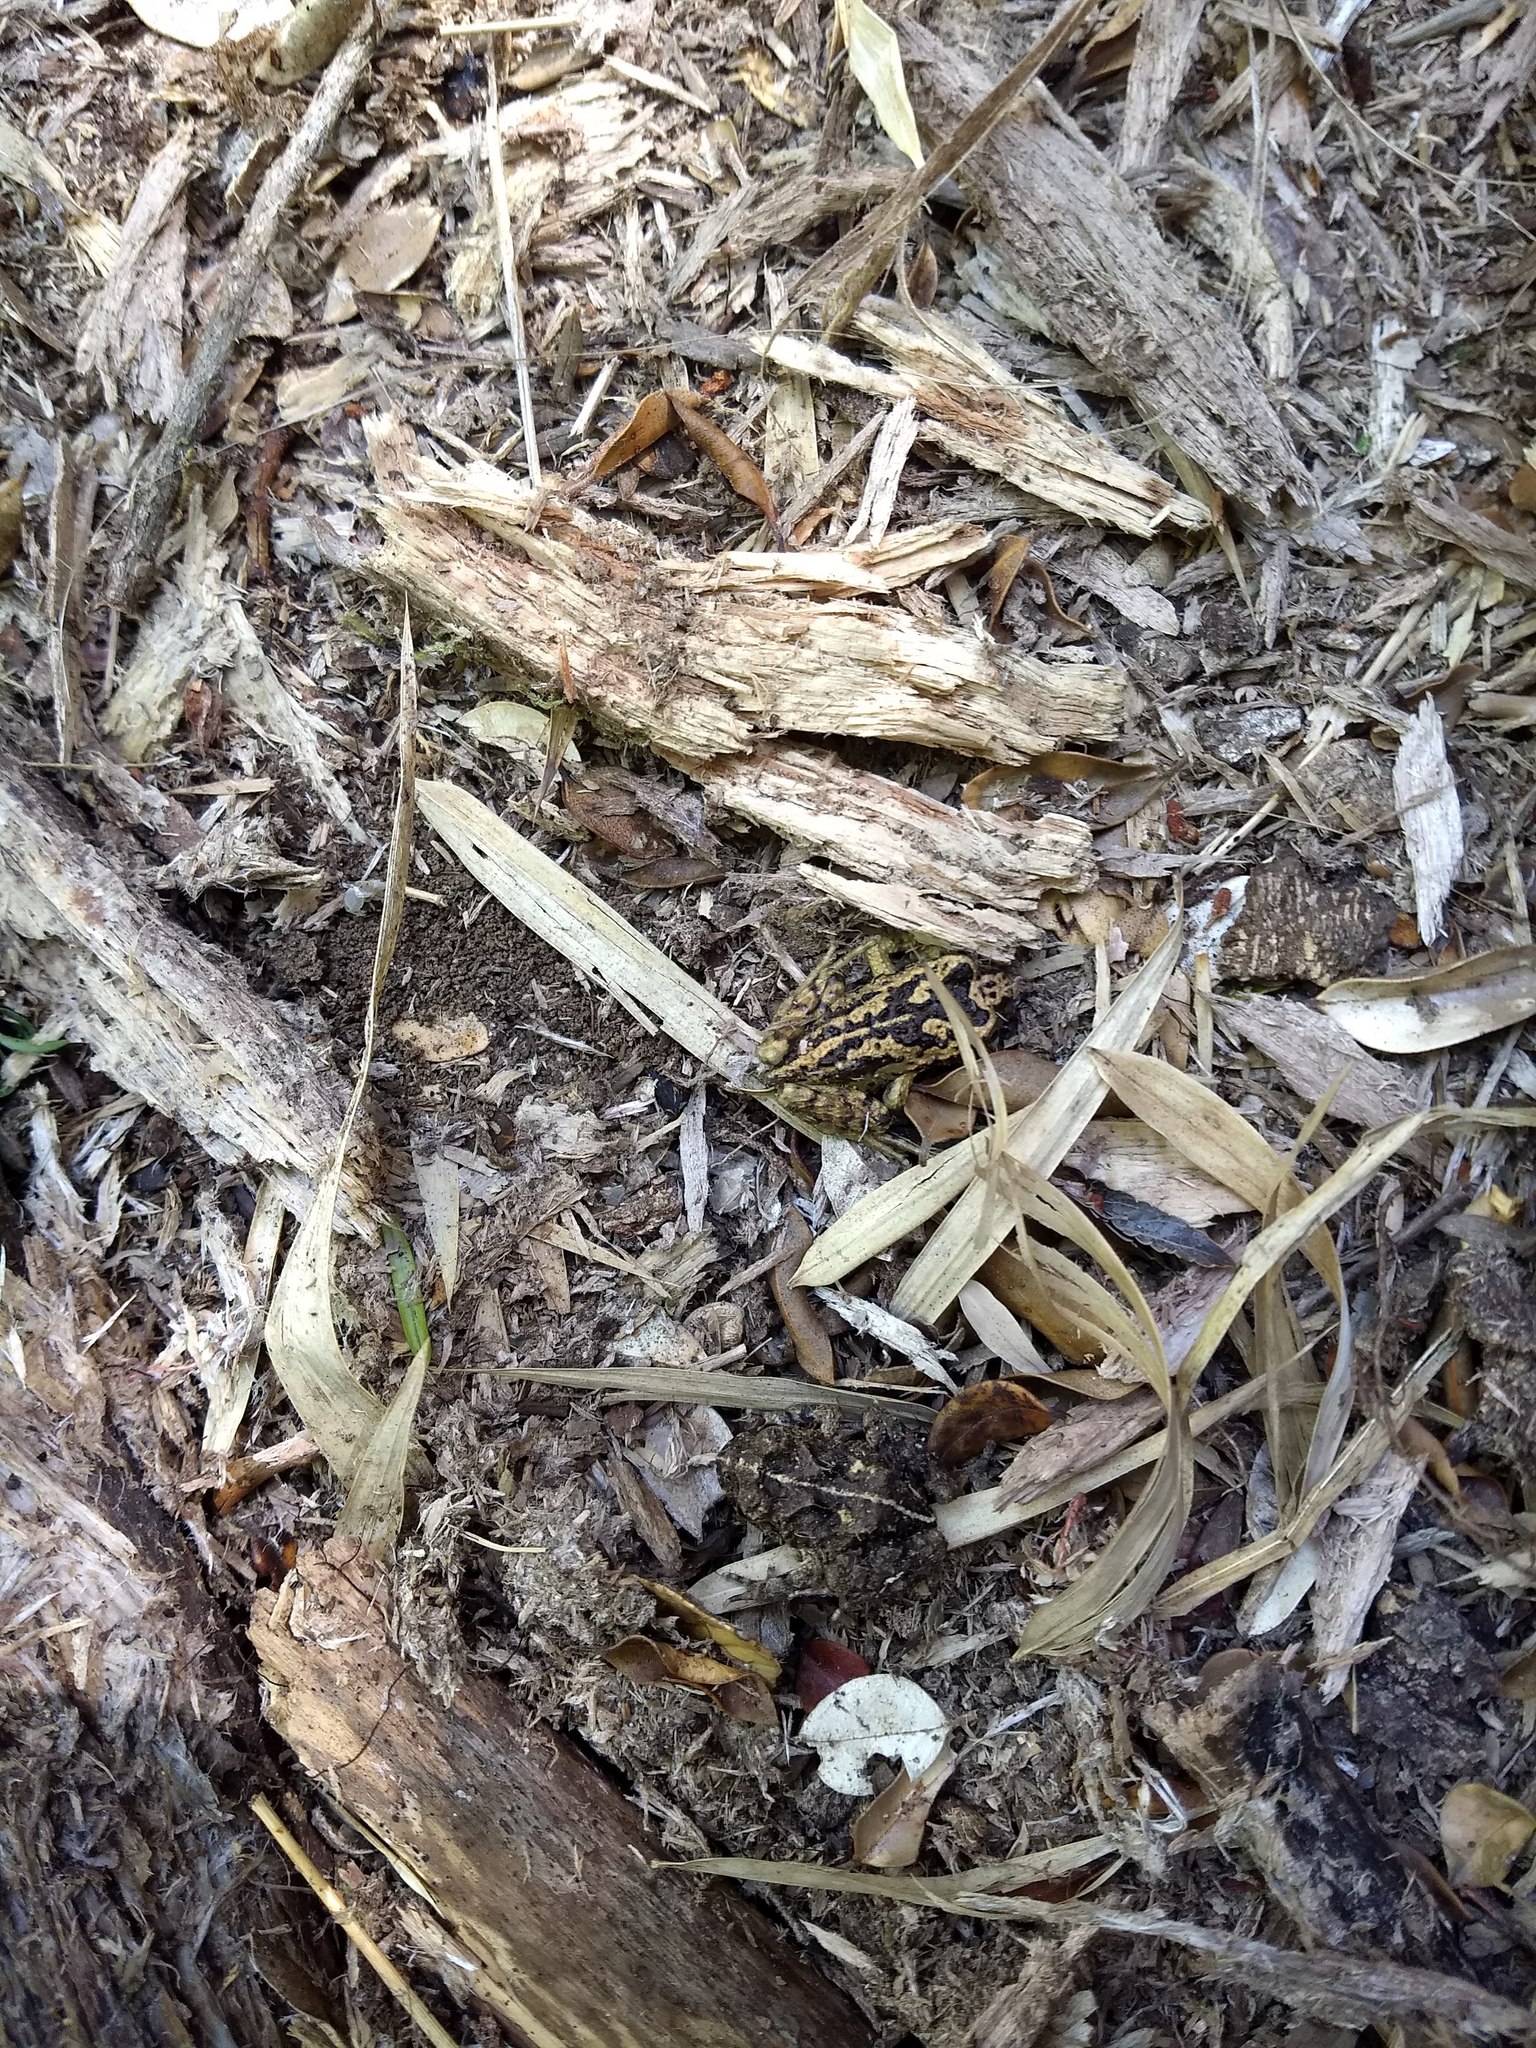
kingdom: Animalia
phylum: Chordata
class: Amphibia
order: Anura
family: Alsodidae
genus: Alsodes
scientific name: Alsodes norae
